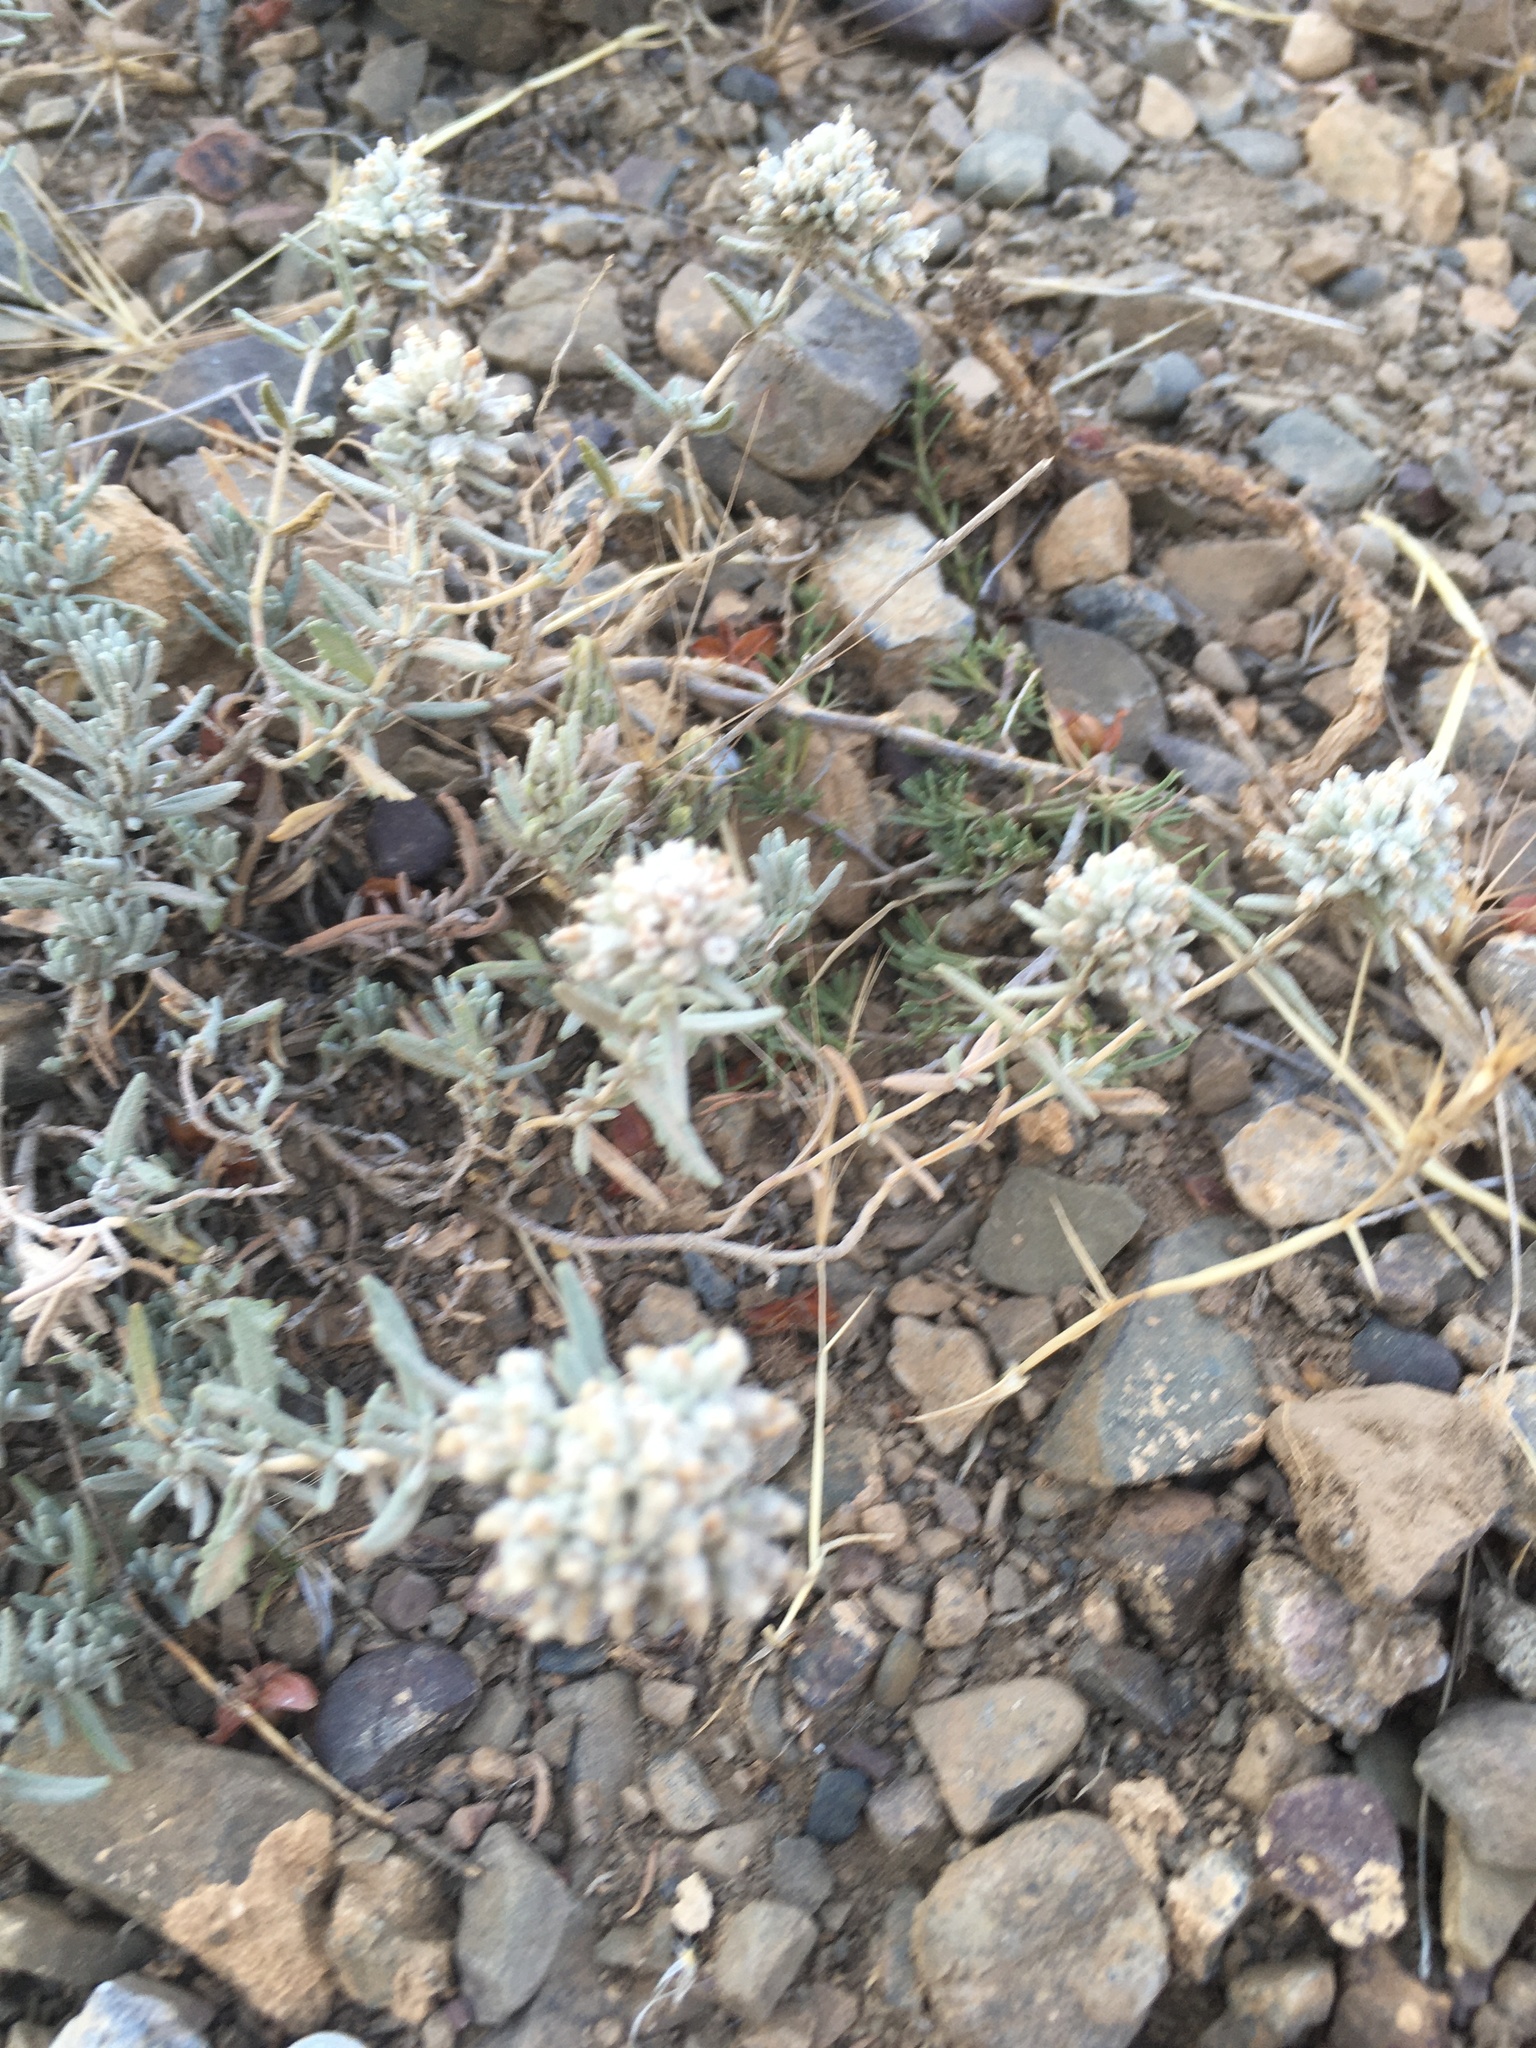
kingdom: Plantae
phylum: Tracheophyta
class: Magnoliopsida
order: Lamiales
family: Lamiaceae
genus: Teucrium
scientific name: Teucrium polium
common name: Poley
